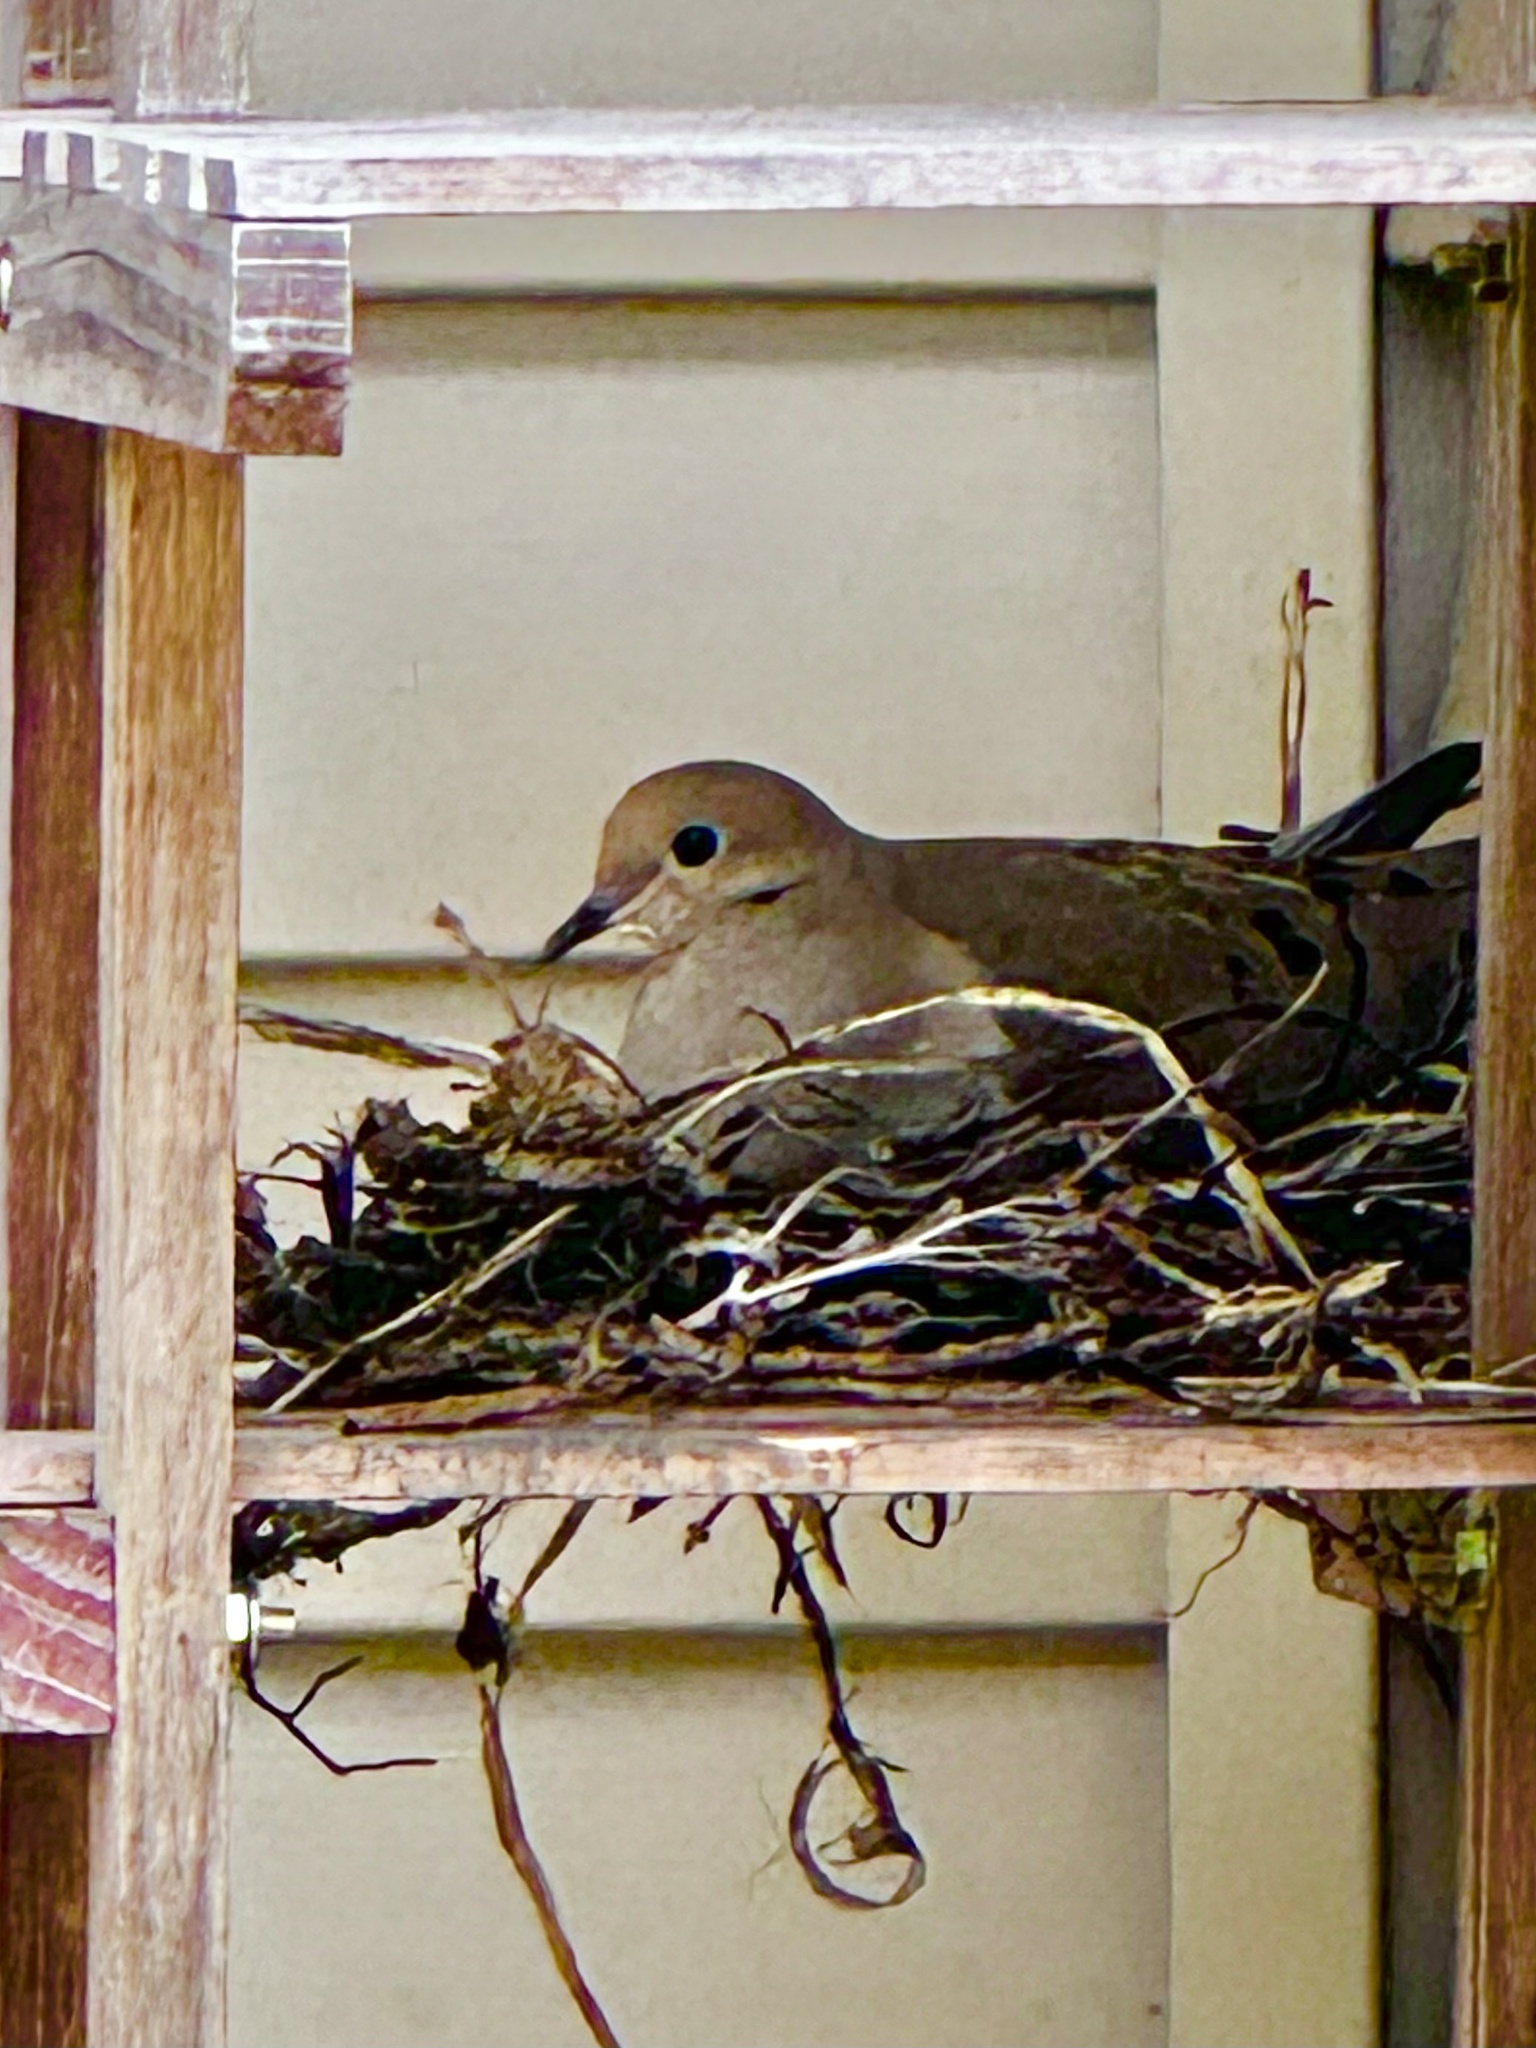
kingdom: Animalia
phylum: Chordata
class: Aves
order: Columbiformes
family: Columbidae
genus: Zenaida
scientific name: Zenaida macroura
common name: Mourning dove
